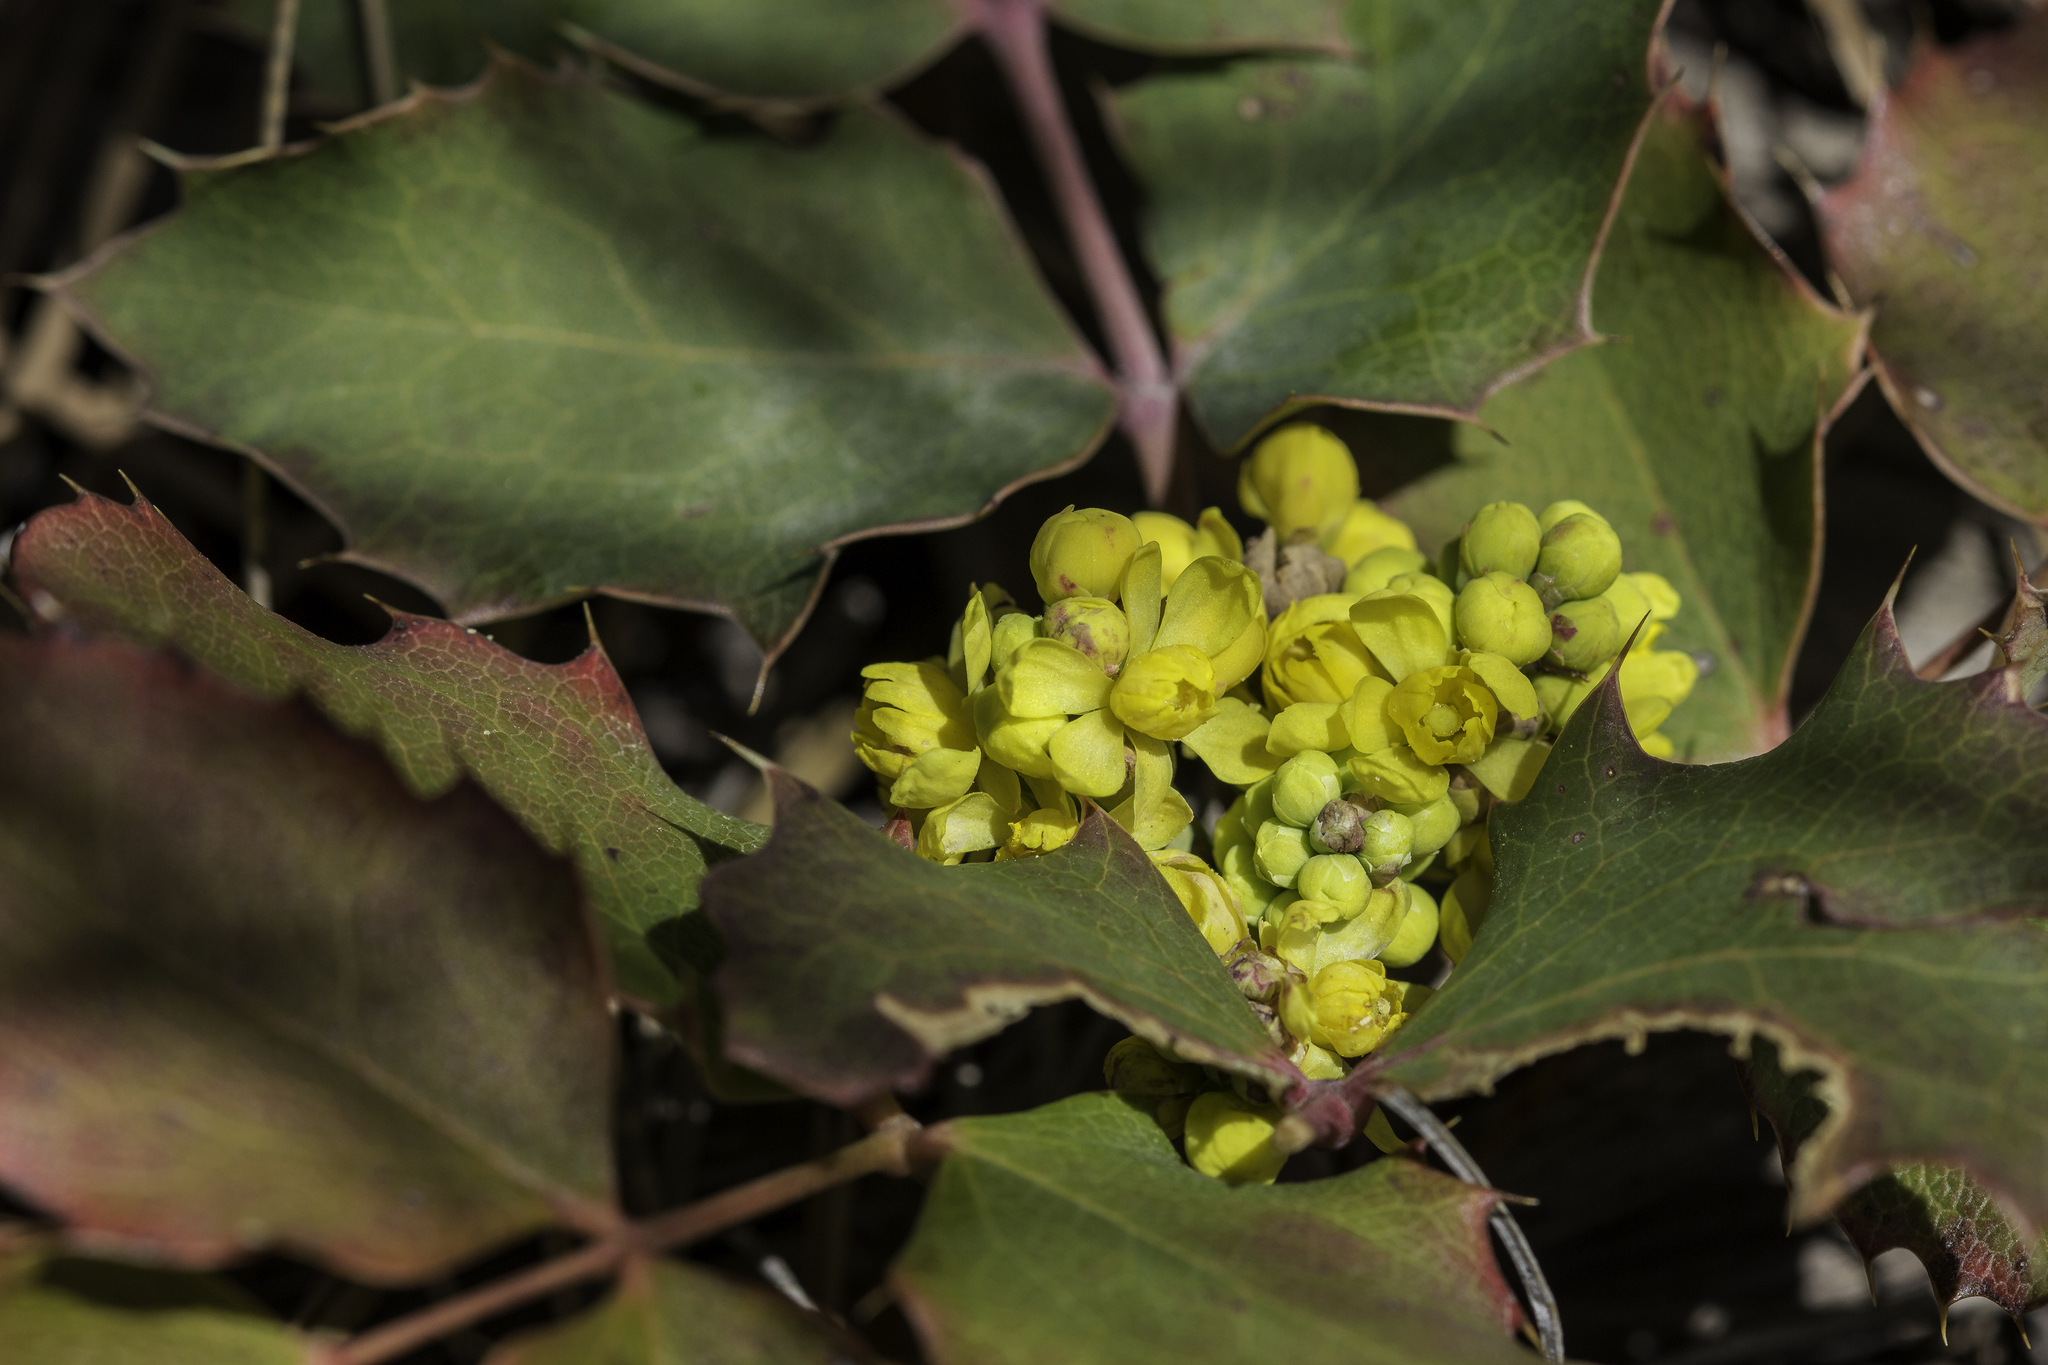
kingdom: Plantae
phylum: Tracheophyta
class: Magnoliopsida
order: Ranunculales
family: Berberidaceae
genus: Mahonia
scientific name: Mahonia repens
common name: Creeping oregon-grape
